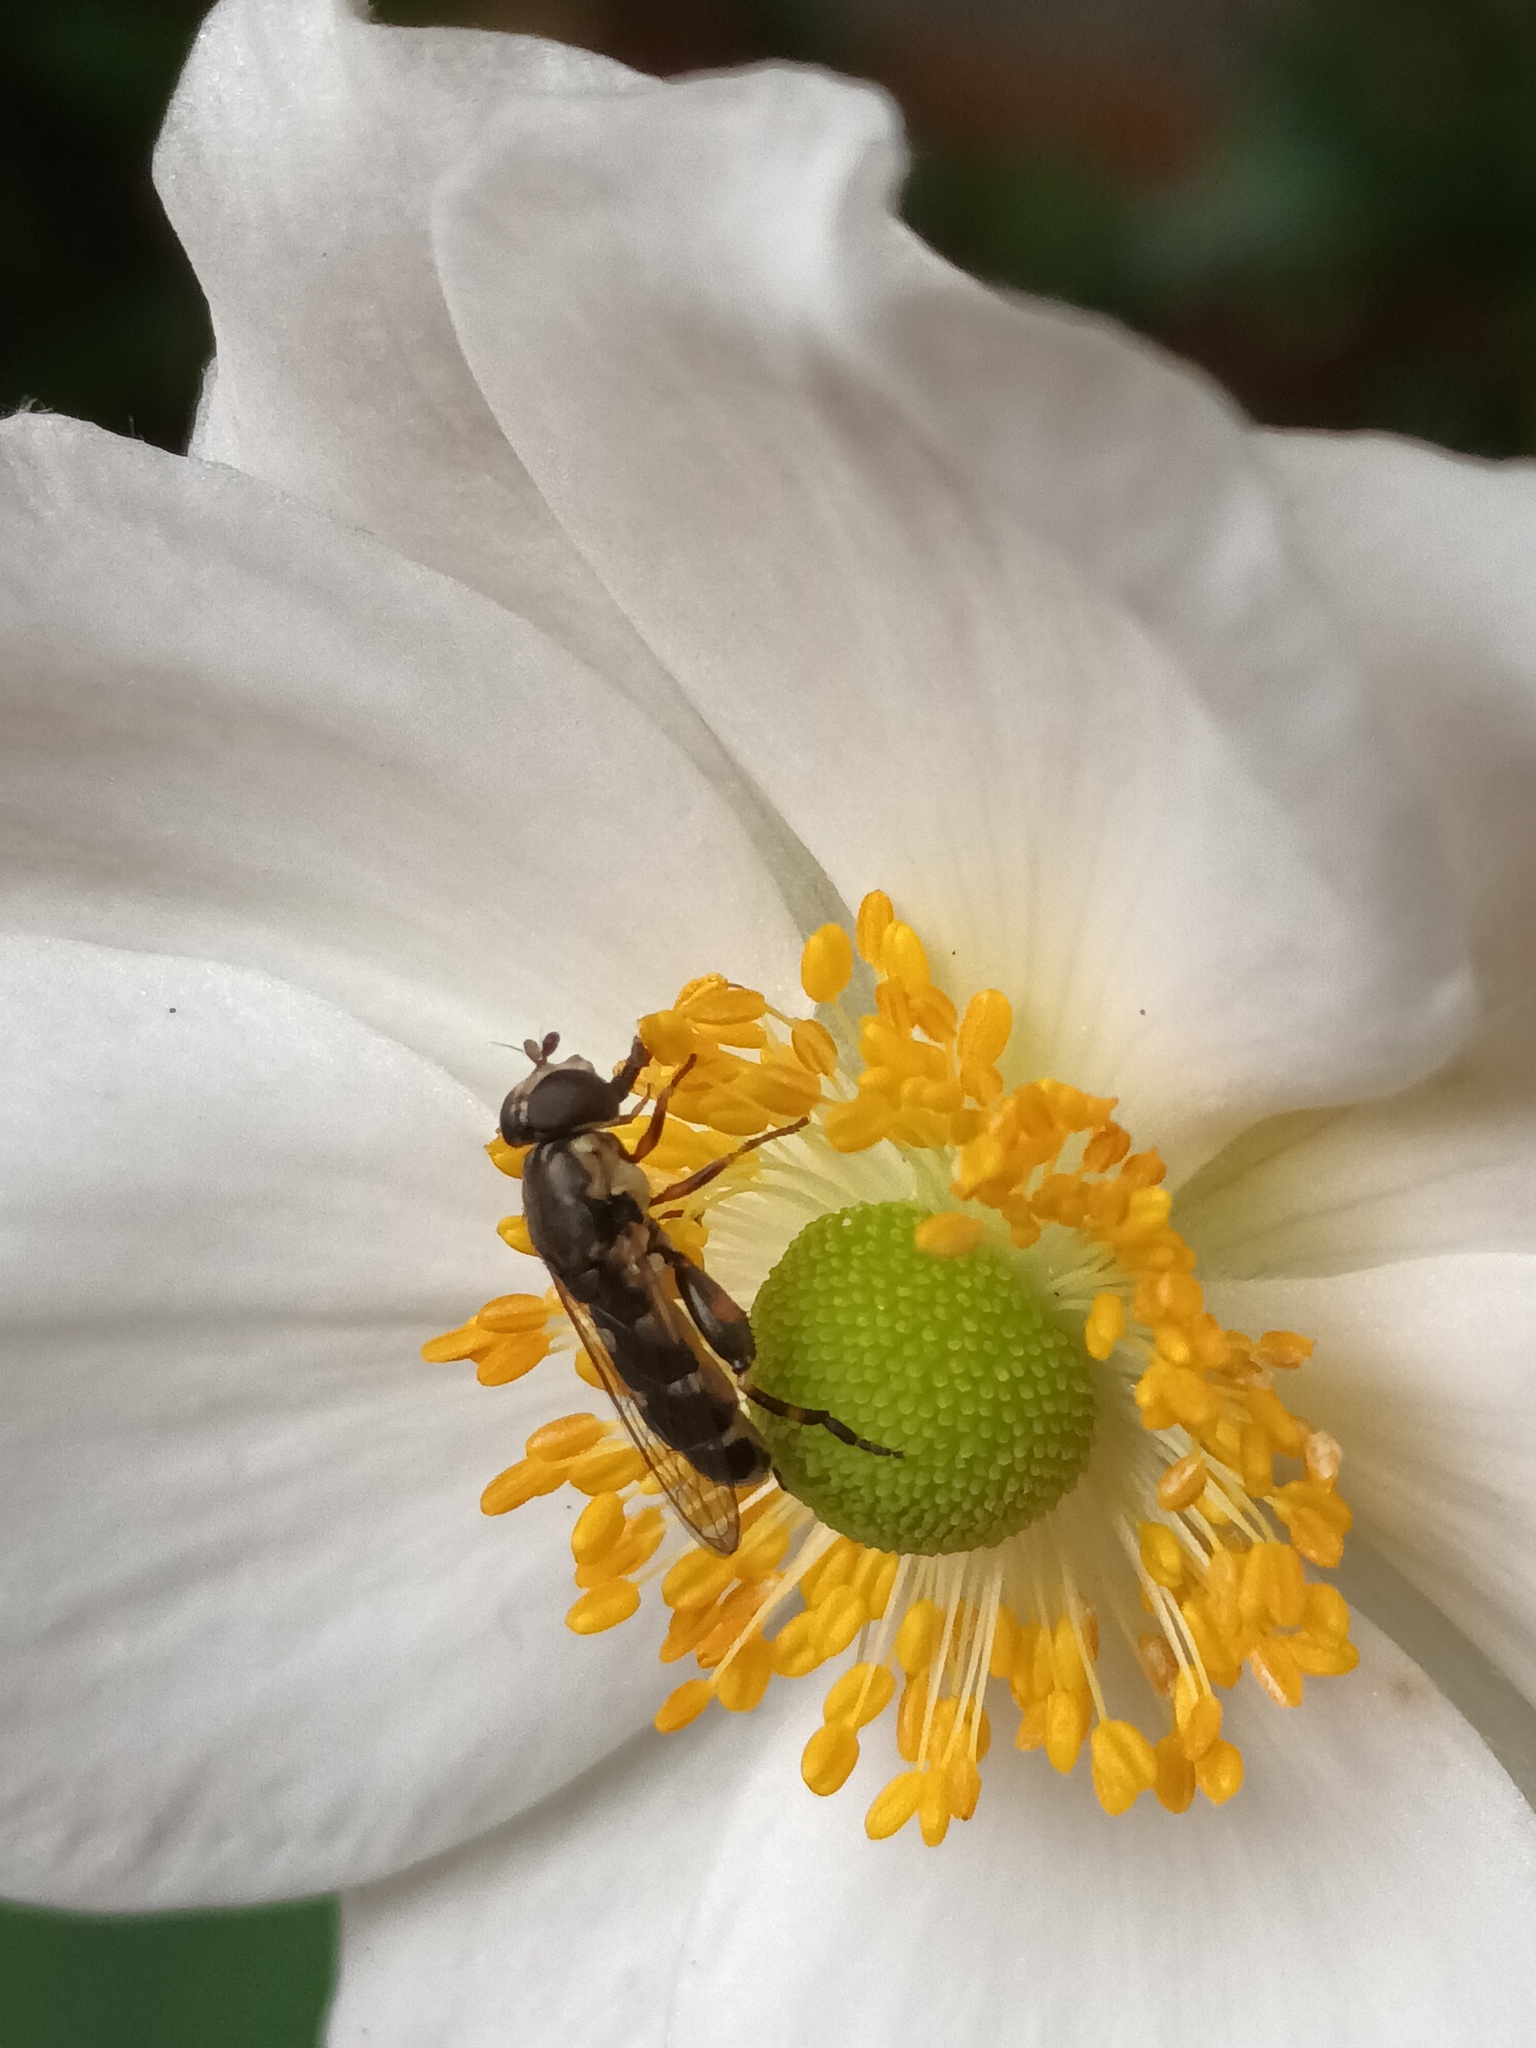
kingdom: Animalia
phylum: Arthropoda
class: Insecta
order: Diptera
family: Syrphidae
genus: Syritta
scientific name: Syritta pipiens
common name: Hover fly
